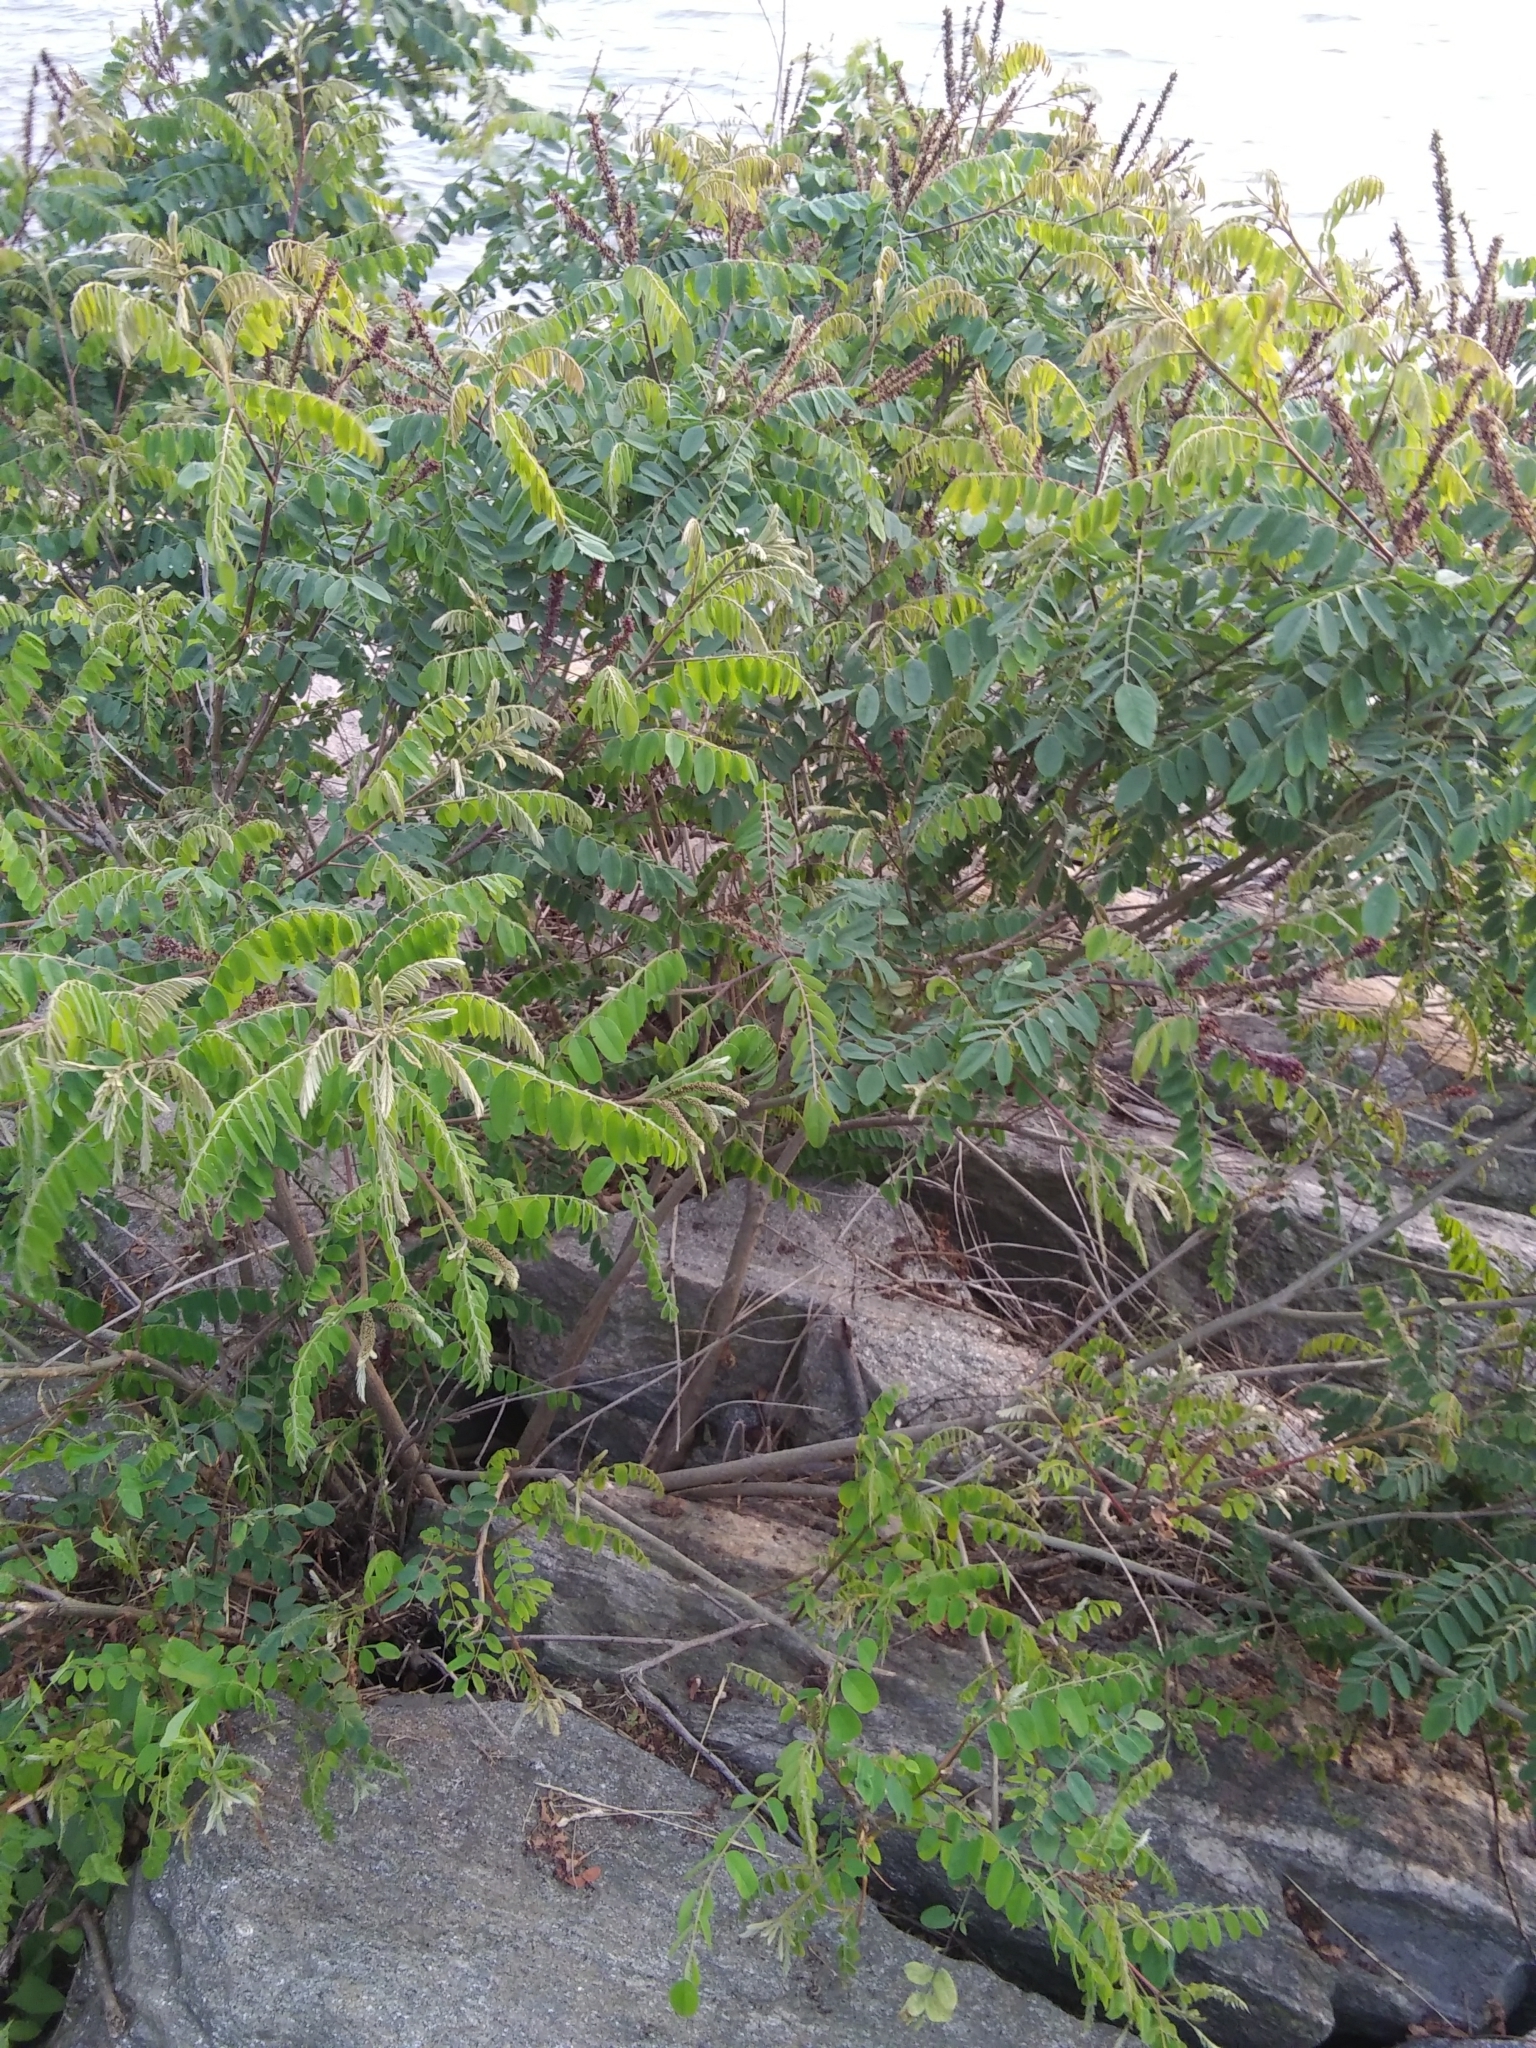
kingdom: Plantae
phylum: Tracheophyta
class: Magnoliopsida
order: Fabales
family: Fabaceae
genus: Amorpha
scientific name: Amorpha fruticosa
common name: False indigo
